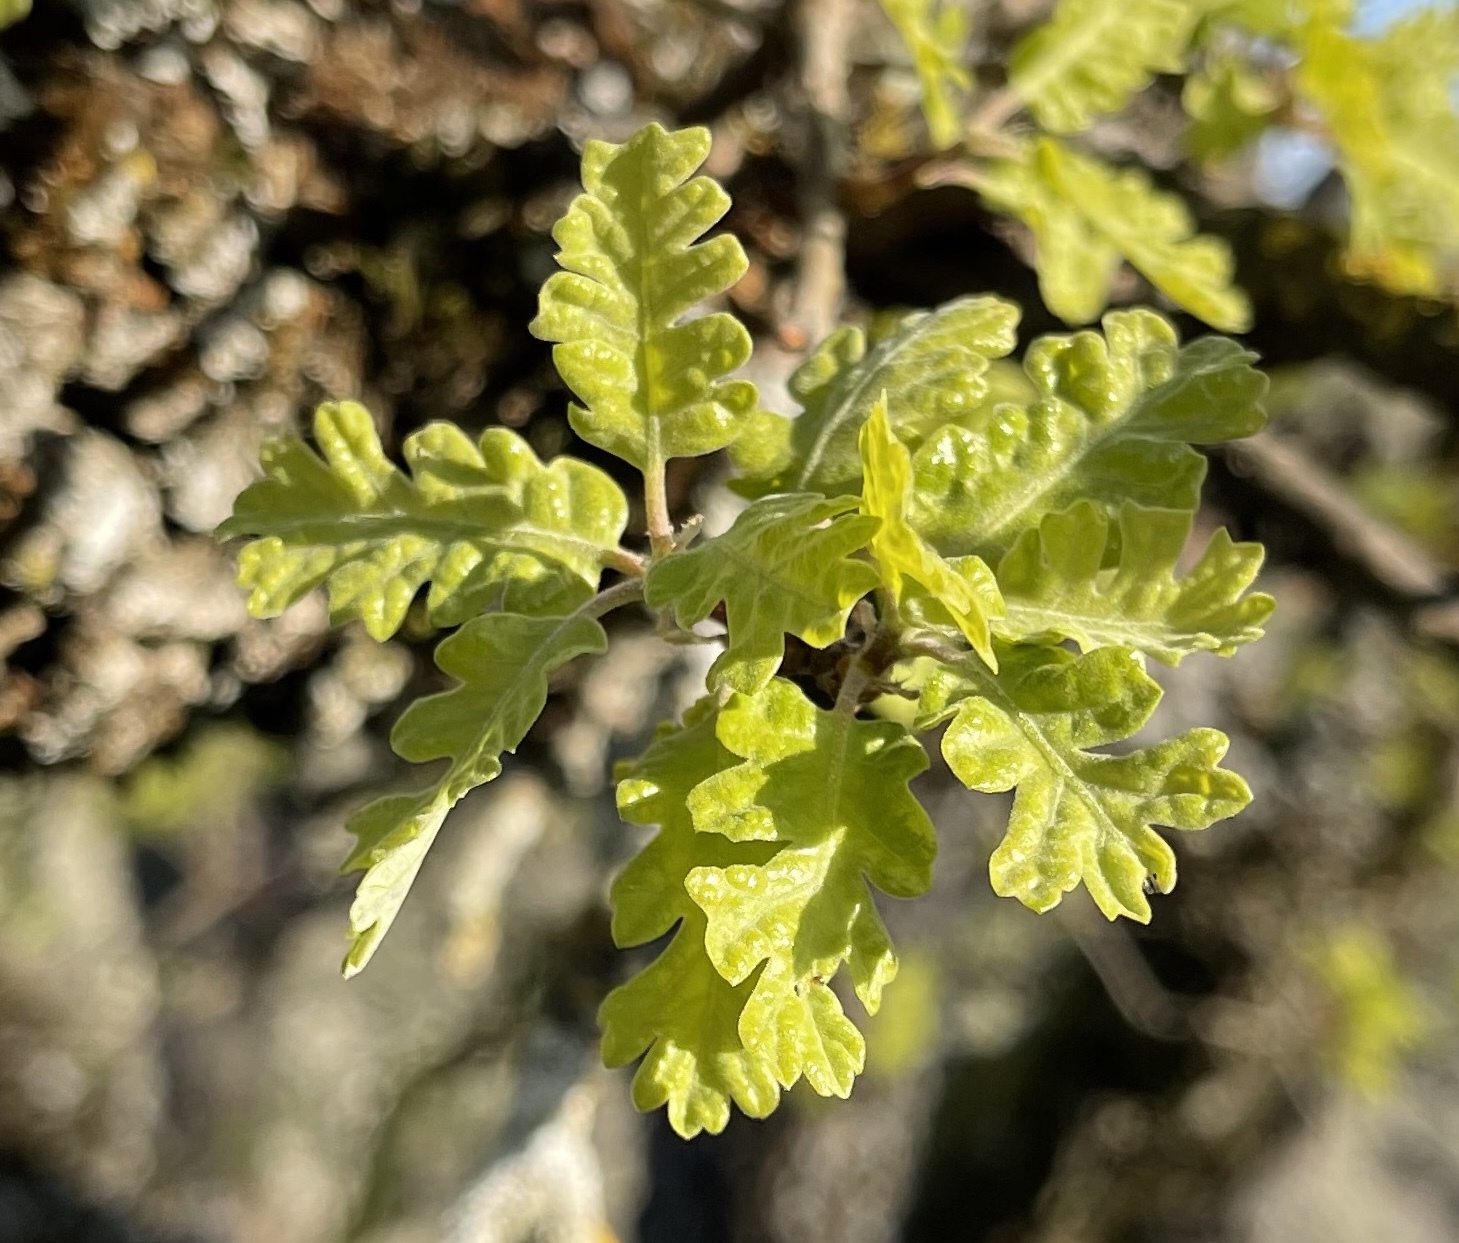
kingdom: Plantae
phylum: Tracheophyta
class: Magnoliopsida
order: Fagales
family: Fagaceae
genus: Quercus
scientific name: Quercus lobata
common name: Valley oak
